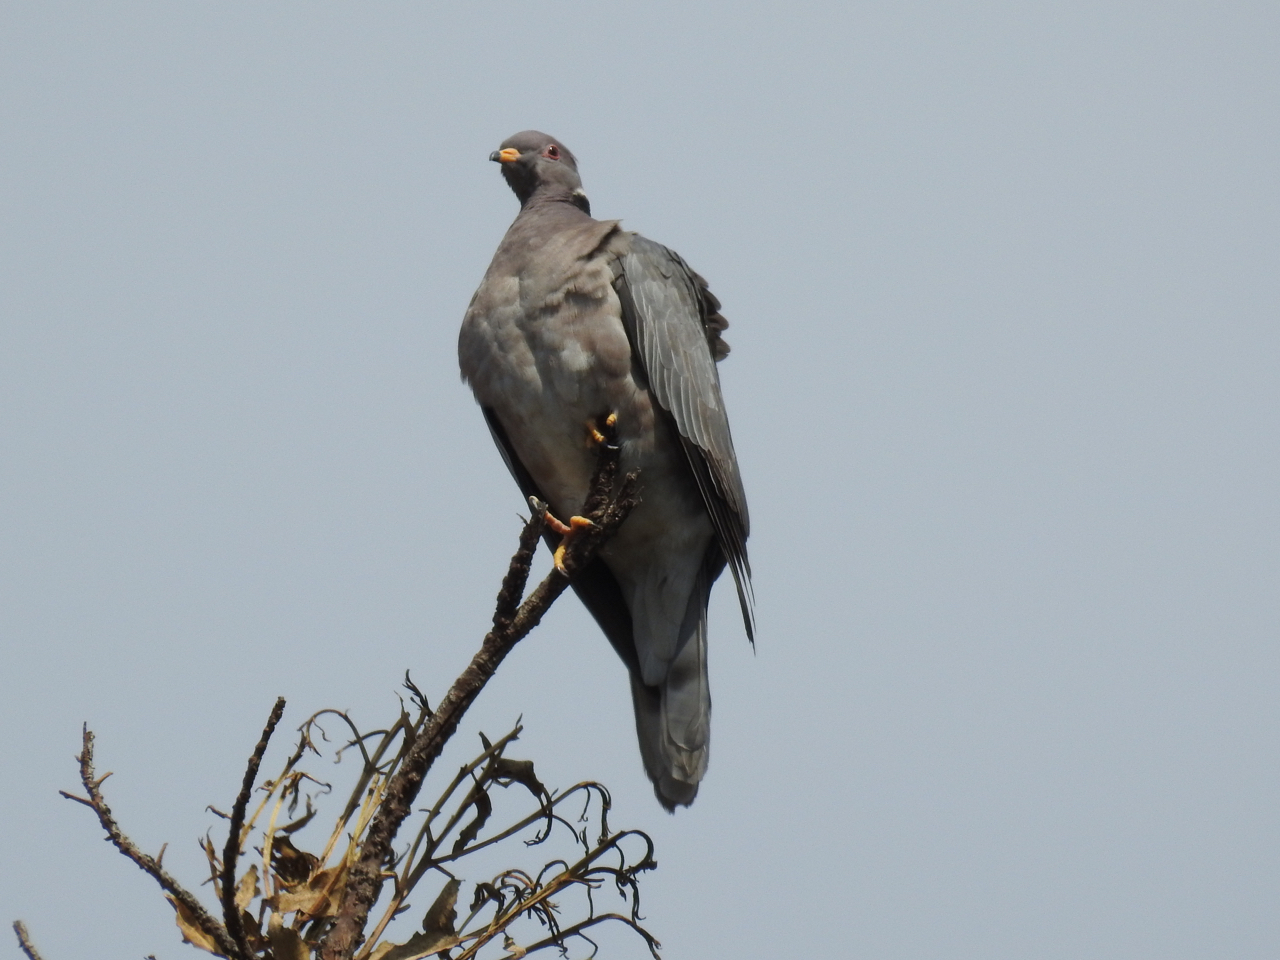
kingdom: Animalia
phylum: Chordata
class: Aves
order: Columbiformes
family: Columbidae
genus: Patagioenas
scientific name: Patagioenas fasciata
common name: Band-tailed pigeon
